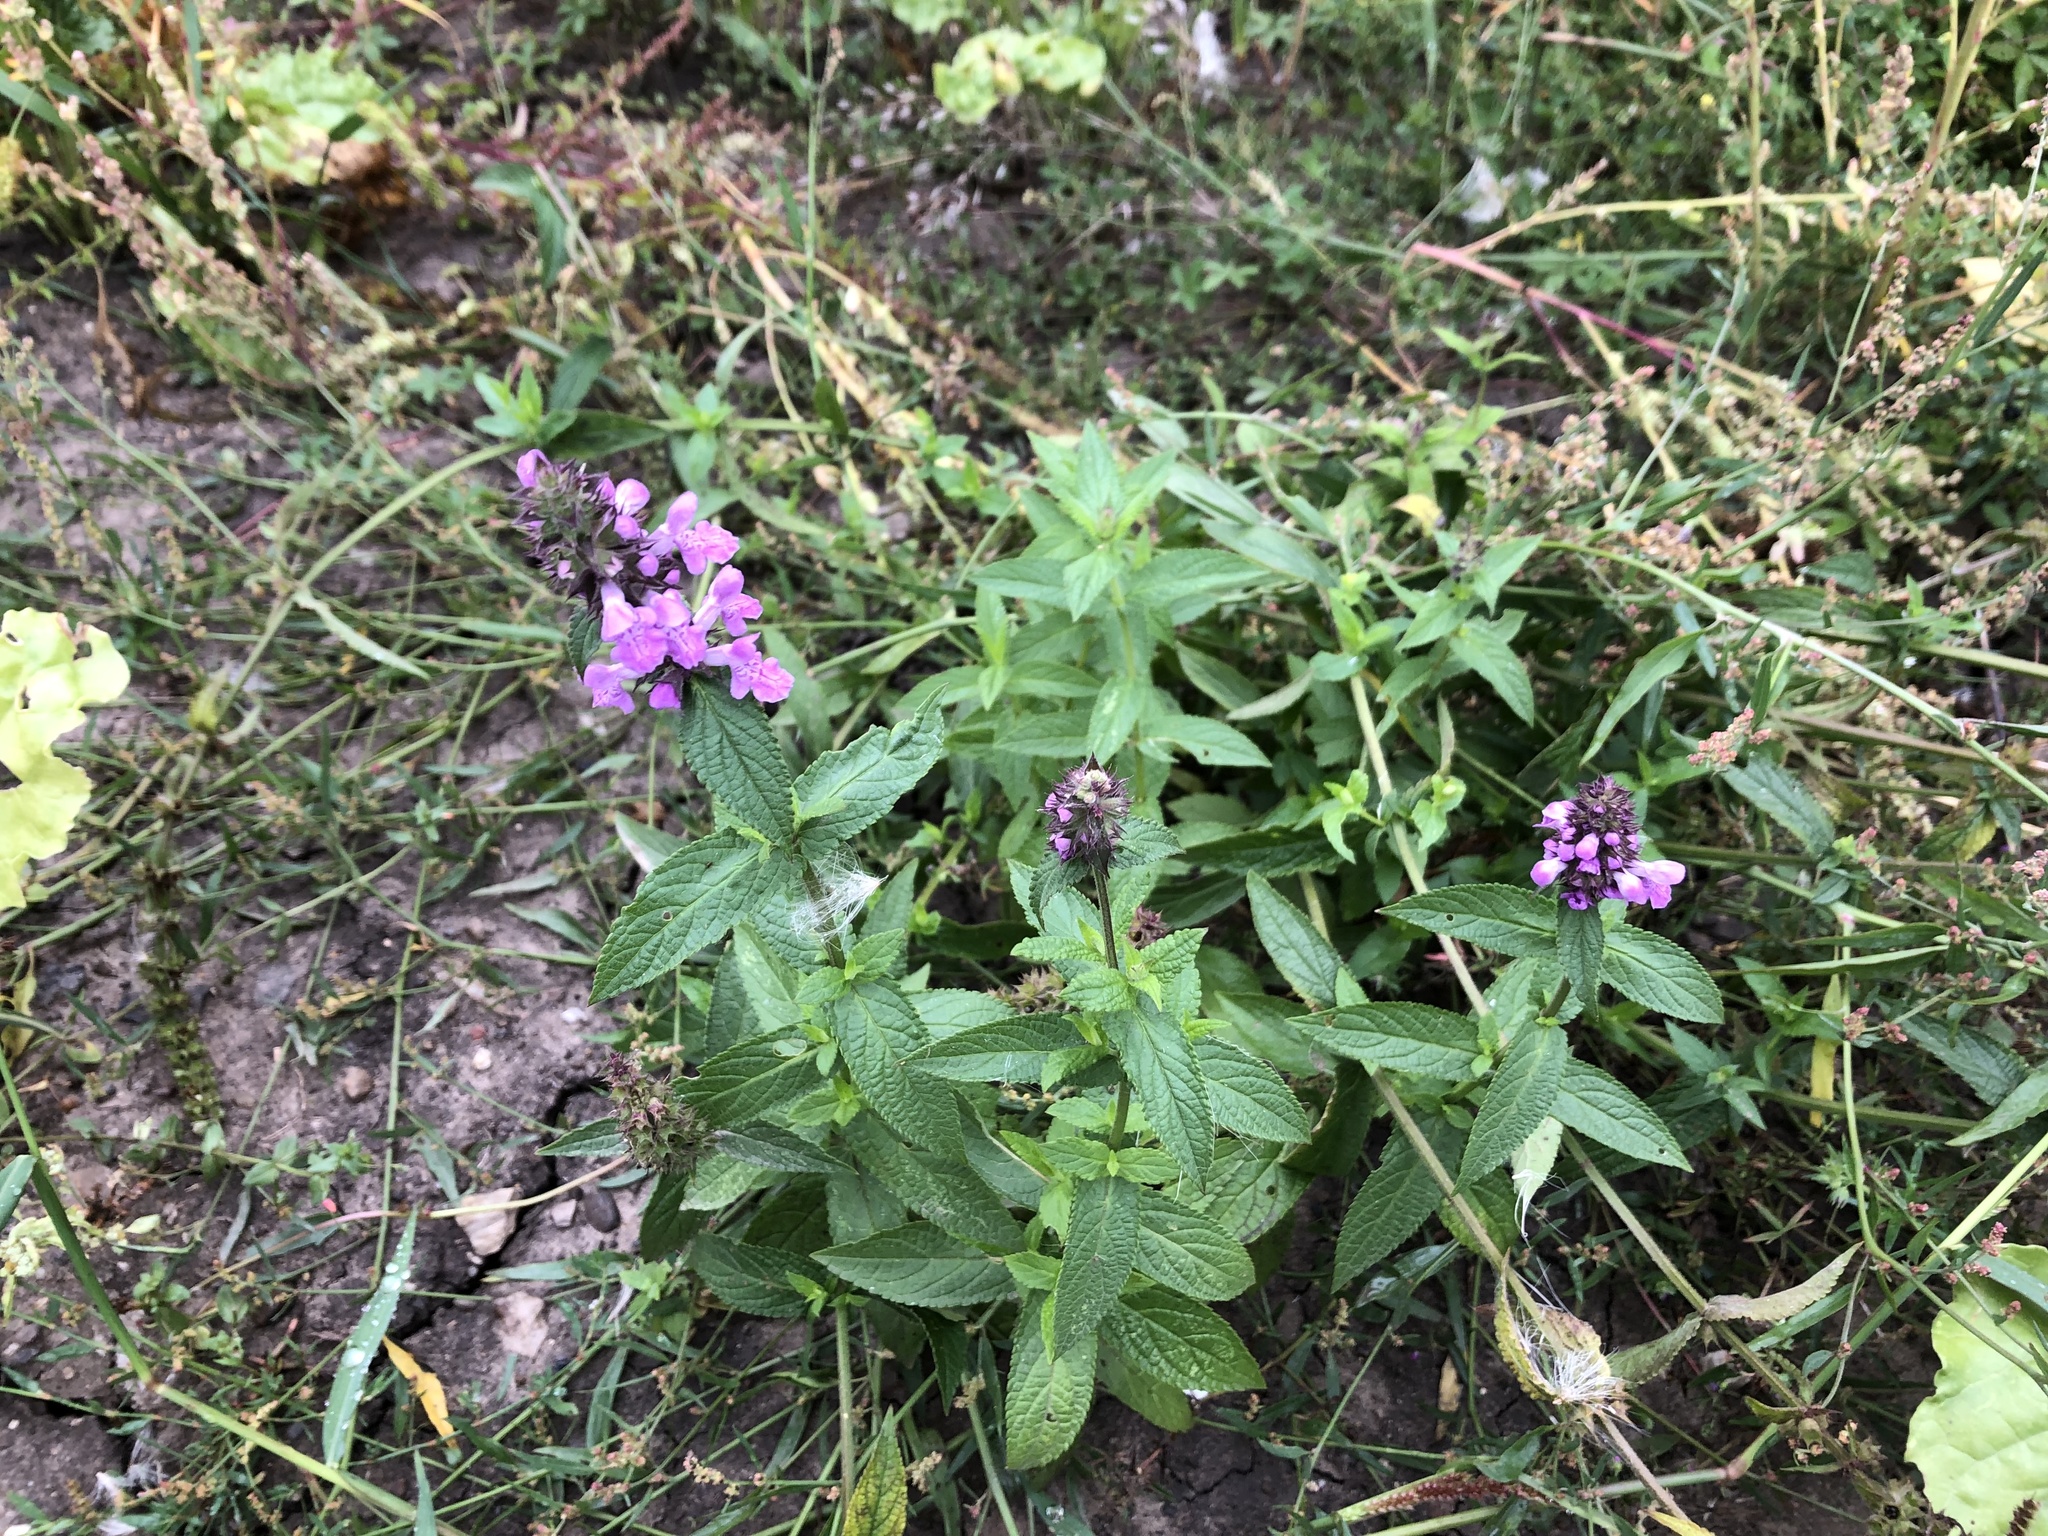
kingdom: Plantae
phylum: Tracheophyta
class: Magnoliopsida
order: Lamiales
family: Lamiaceae
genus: Stachys
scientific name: Stachys palustris
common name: Marsh woundwort
